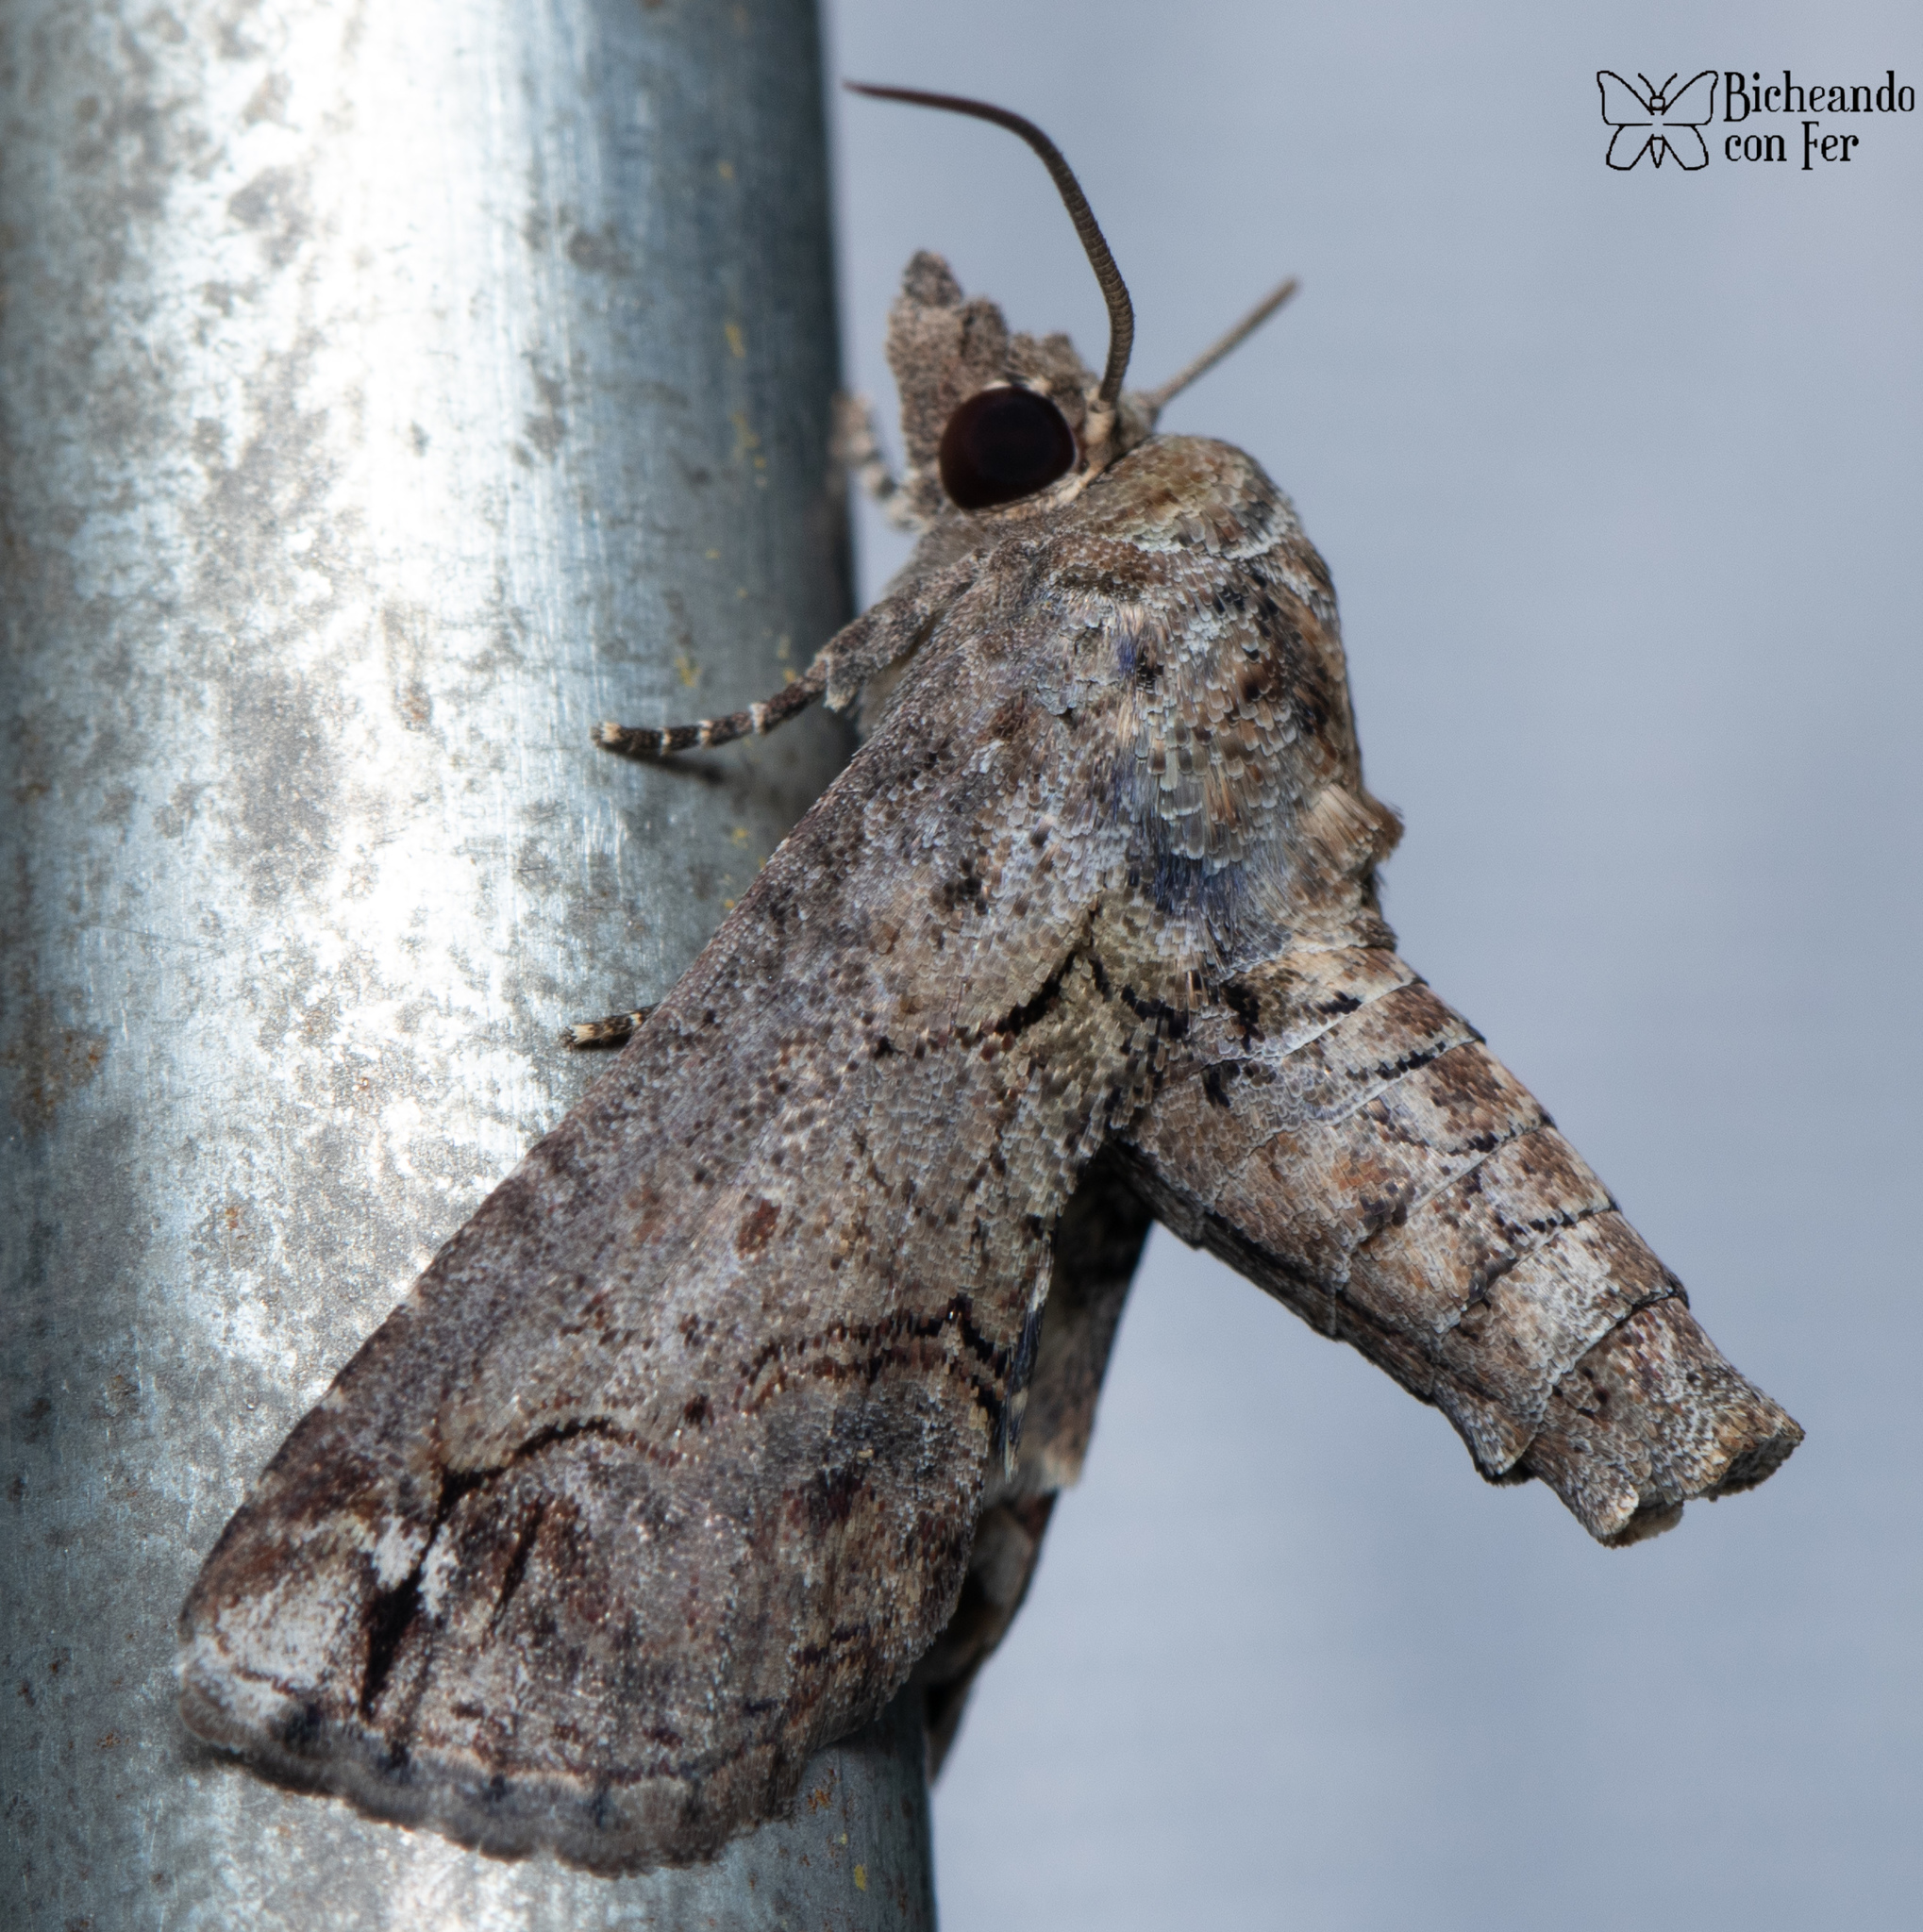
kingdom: Animalia
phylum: Arthropoda
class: Insecta
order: Lepidoptera
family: Euteliidae
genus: Paectes
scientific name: Paectes abrostoloides
